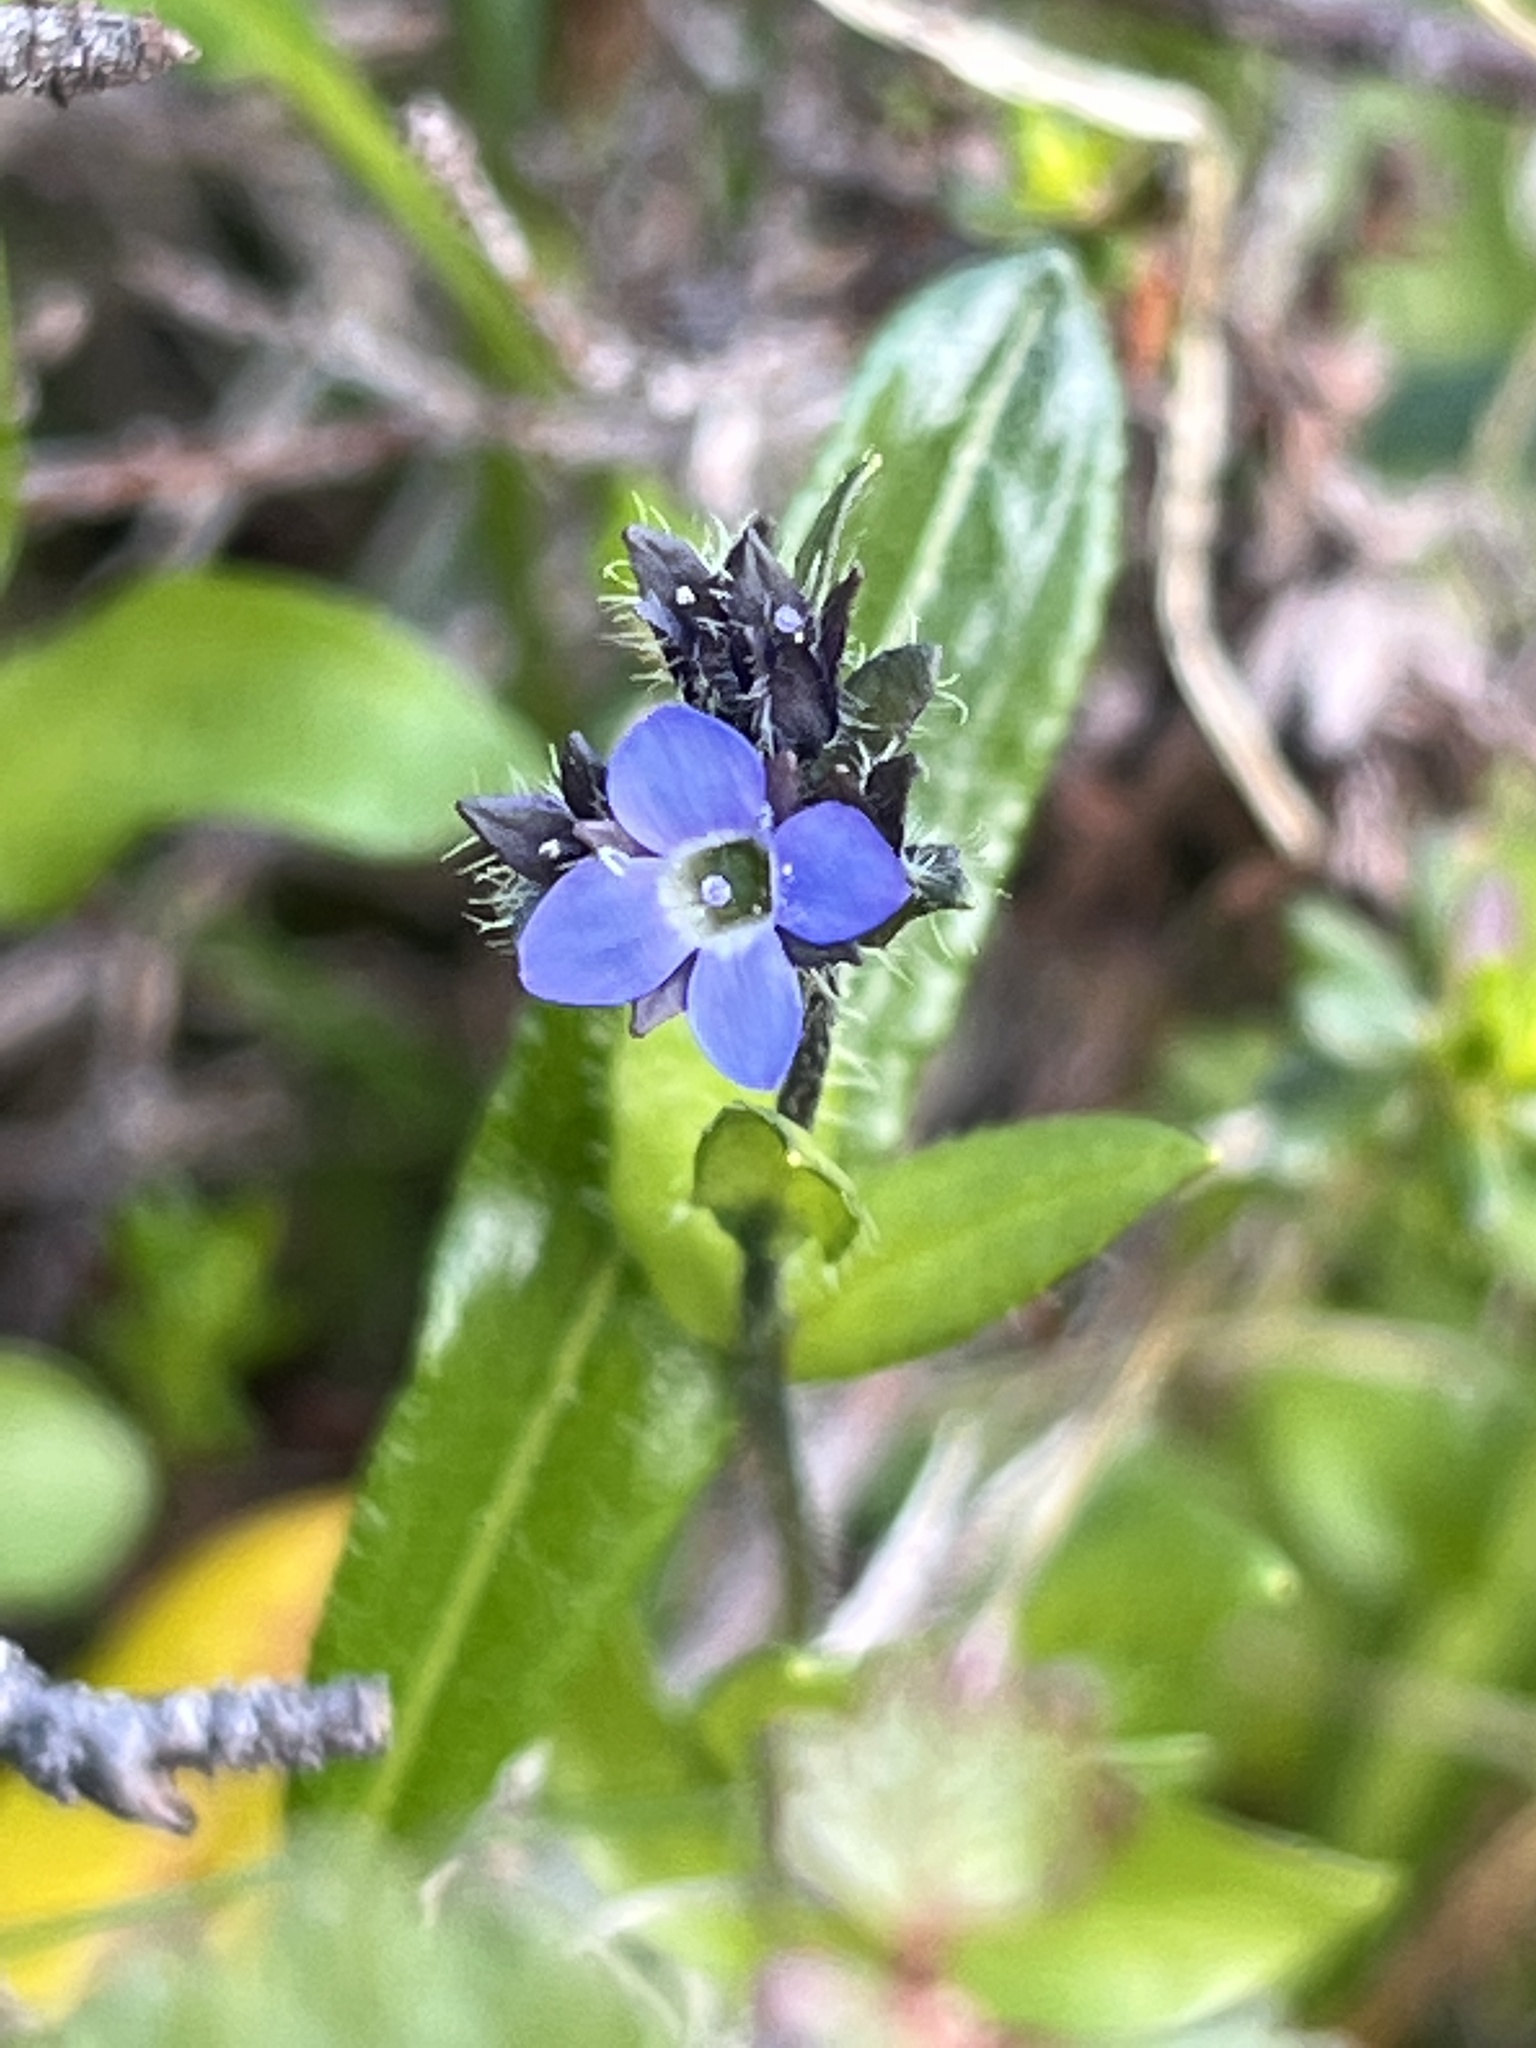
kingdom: Plantae
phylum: Tracheophyta
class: Magnoliopsida
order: Lamiales
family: Plantaginaceae
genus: Veronica
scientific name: Veronica alpina
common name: Alpine speedwell
